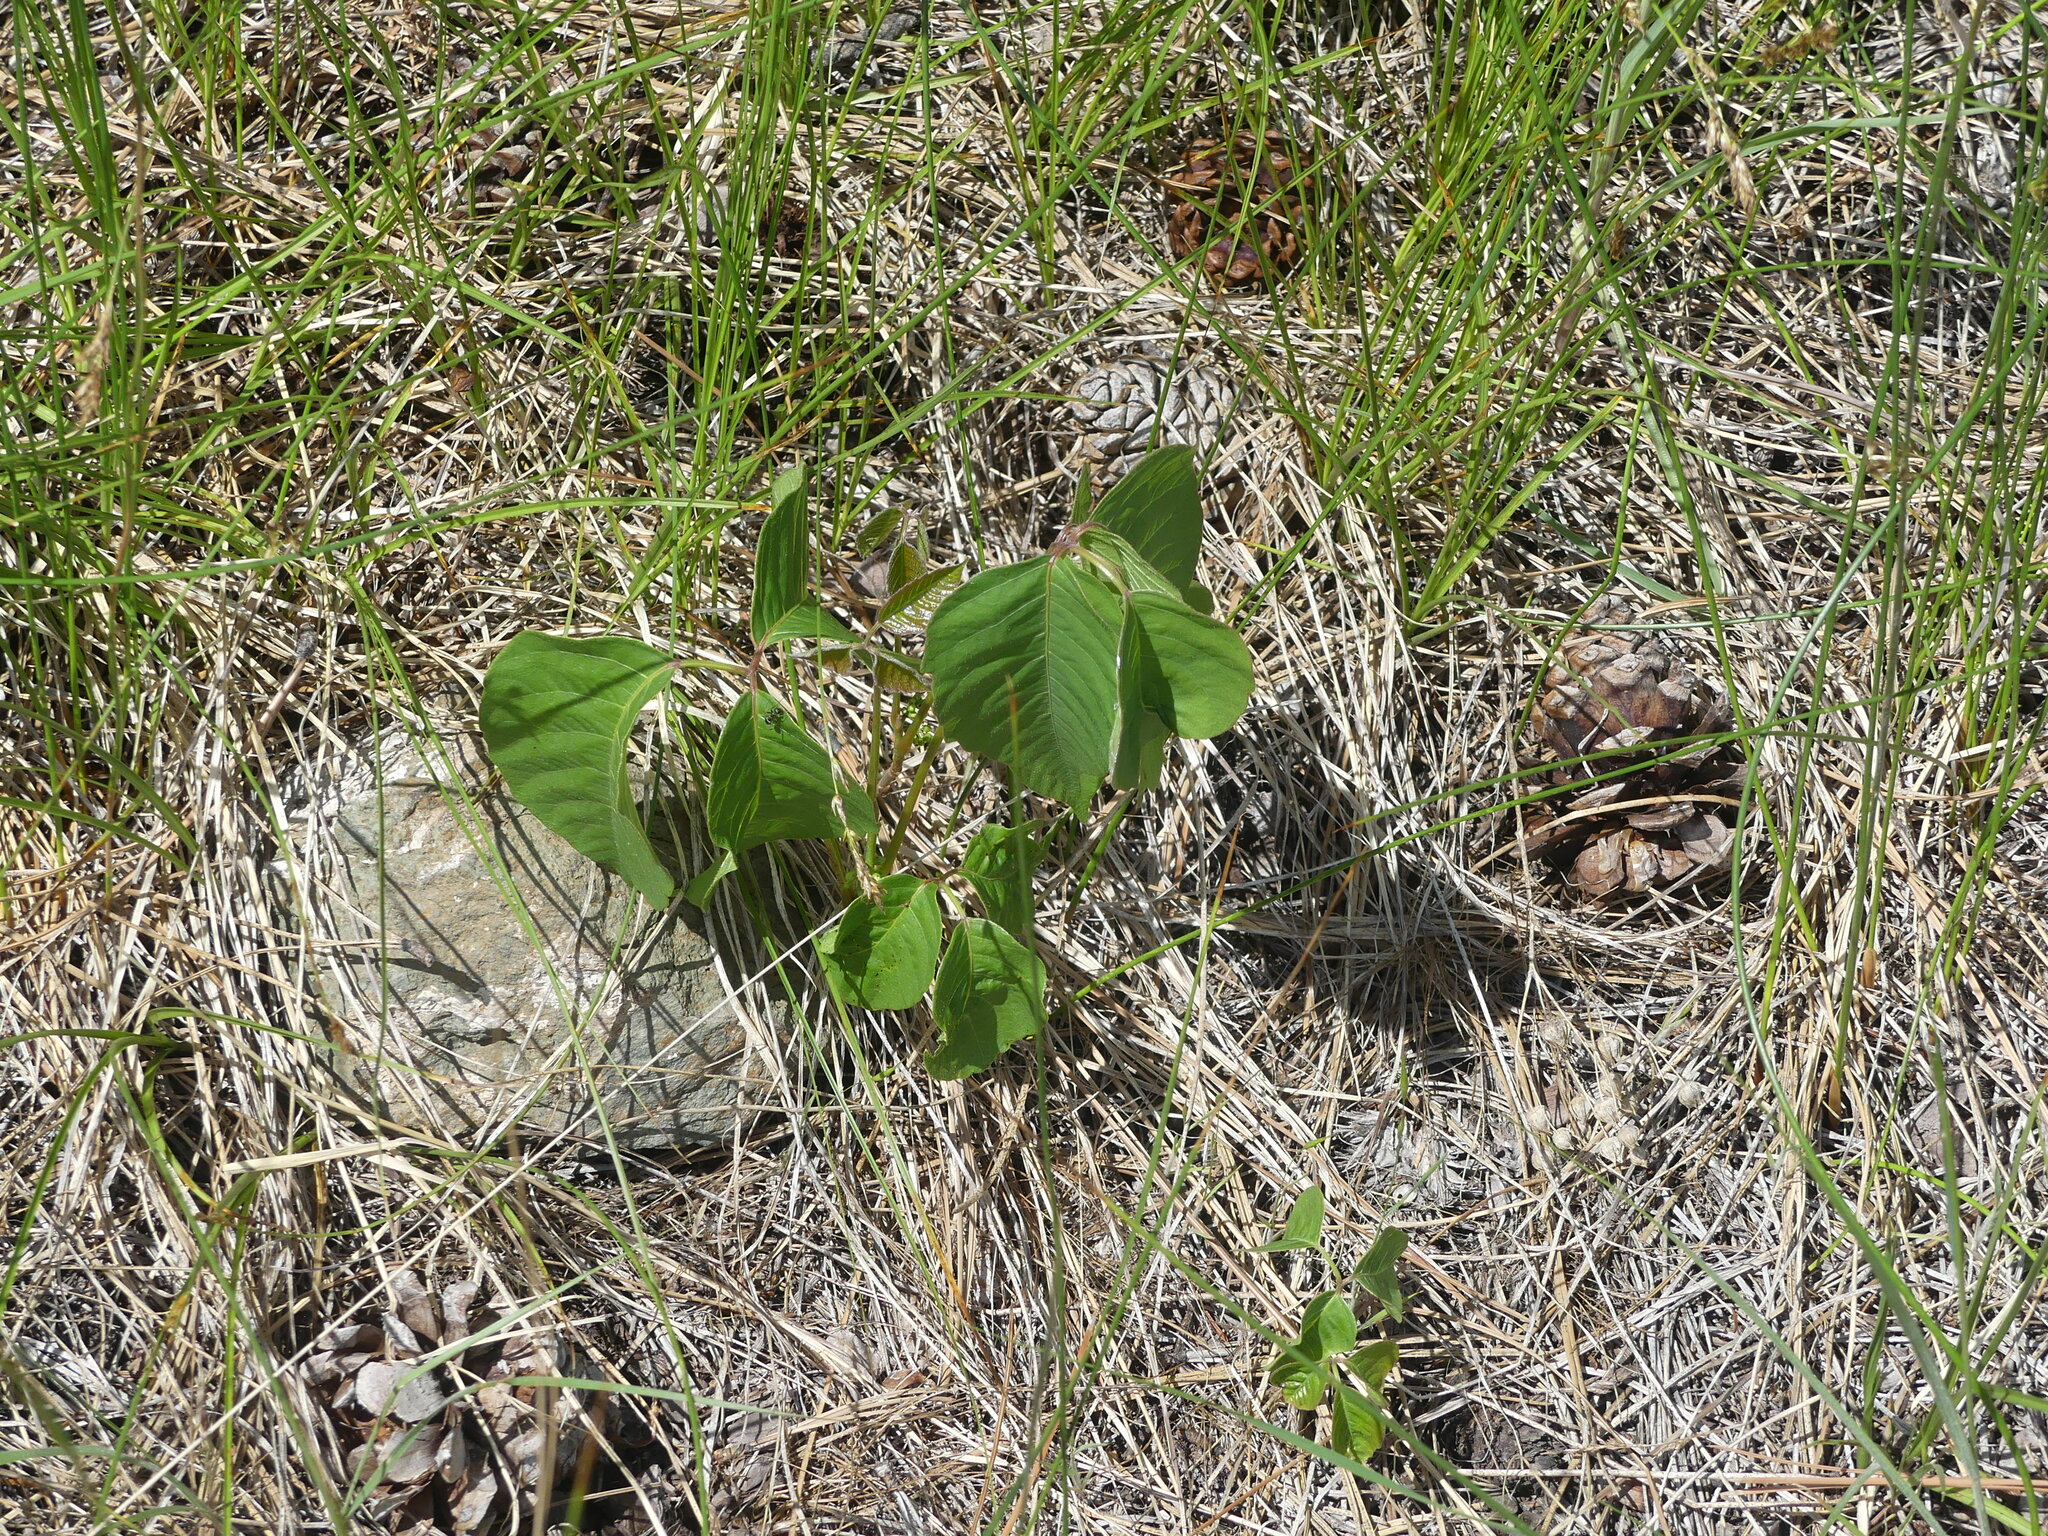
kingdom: Plantae
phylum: Tracheophyta
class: Magnoliopsida
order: Sapindales
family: Anacardiaceae
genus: Toxicodendron
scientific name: Toxicodendron rydbergii
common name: Rydberg's poison-ivy
